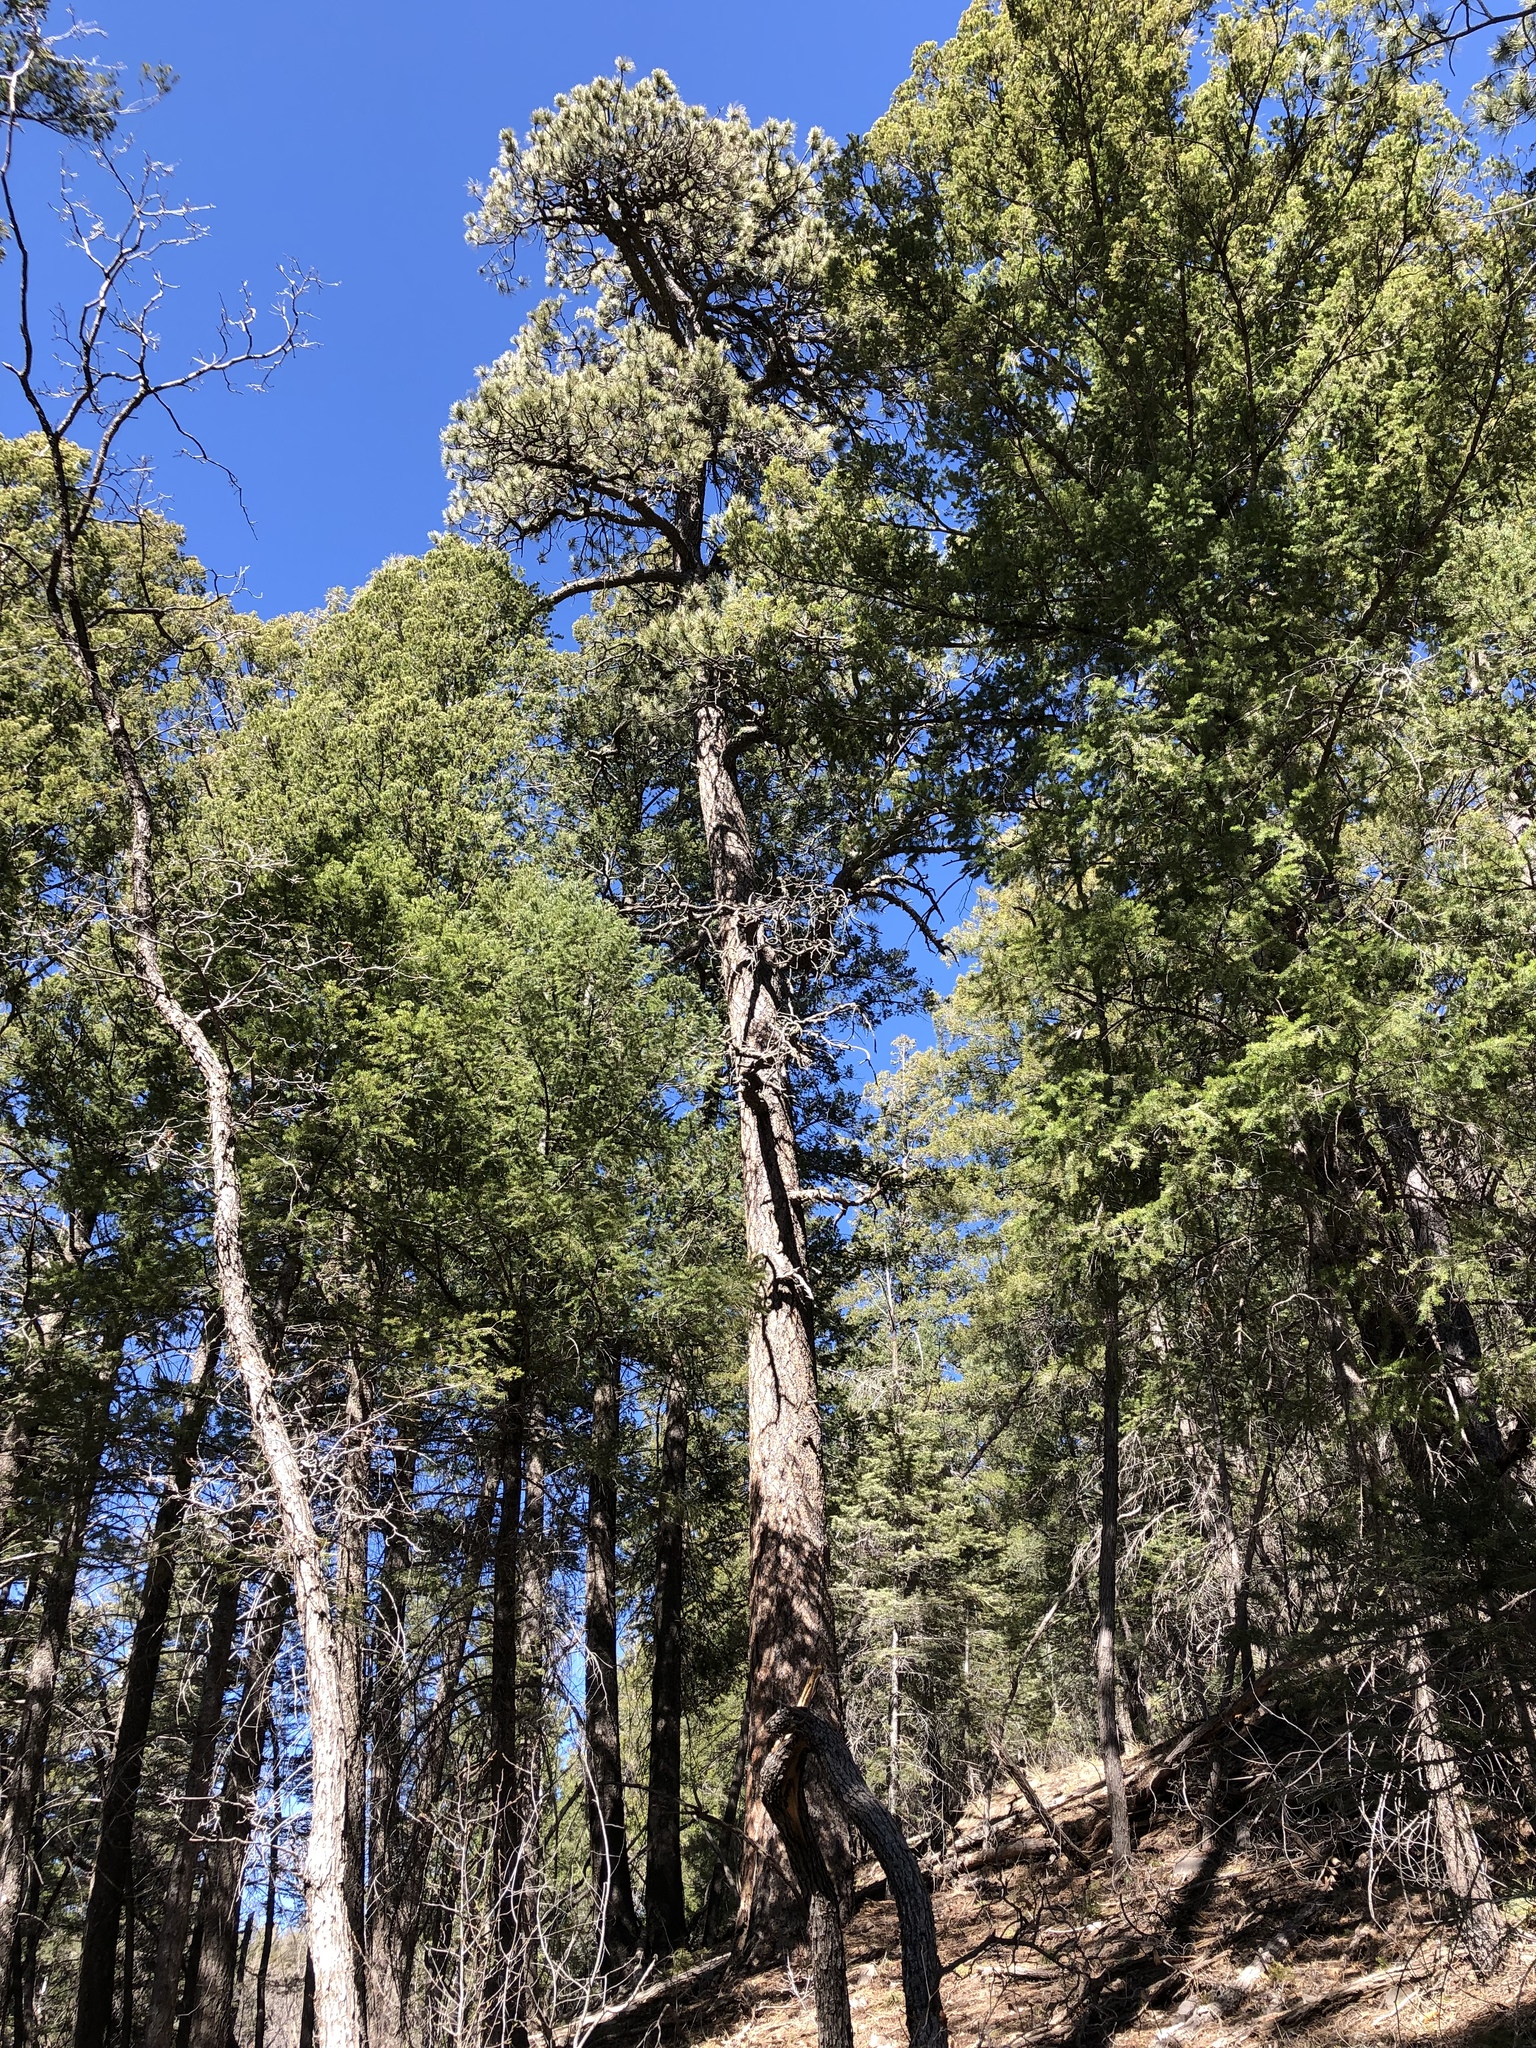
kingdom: Plantae
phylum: Tracheophyta
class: Pinopsida
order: Pinales
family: Pinaceae
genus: Pinus
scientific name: Pinus ponderosa
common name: Western yellow-pine
